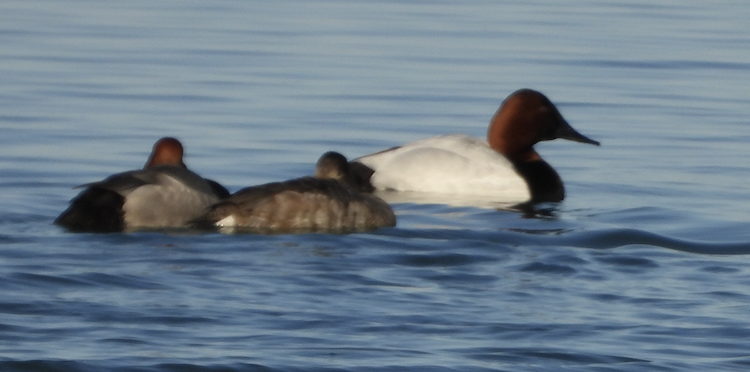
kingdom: Animalia
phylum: Chordata
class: Aves
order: Anseriformes
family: Anatidae
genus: Aythya
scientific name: Aythya valisineria
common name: Canvasback
